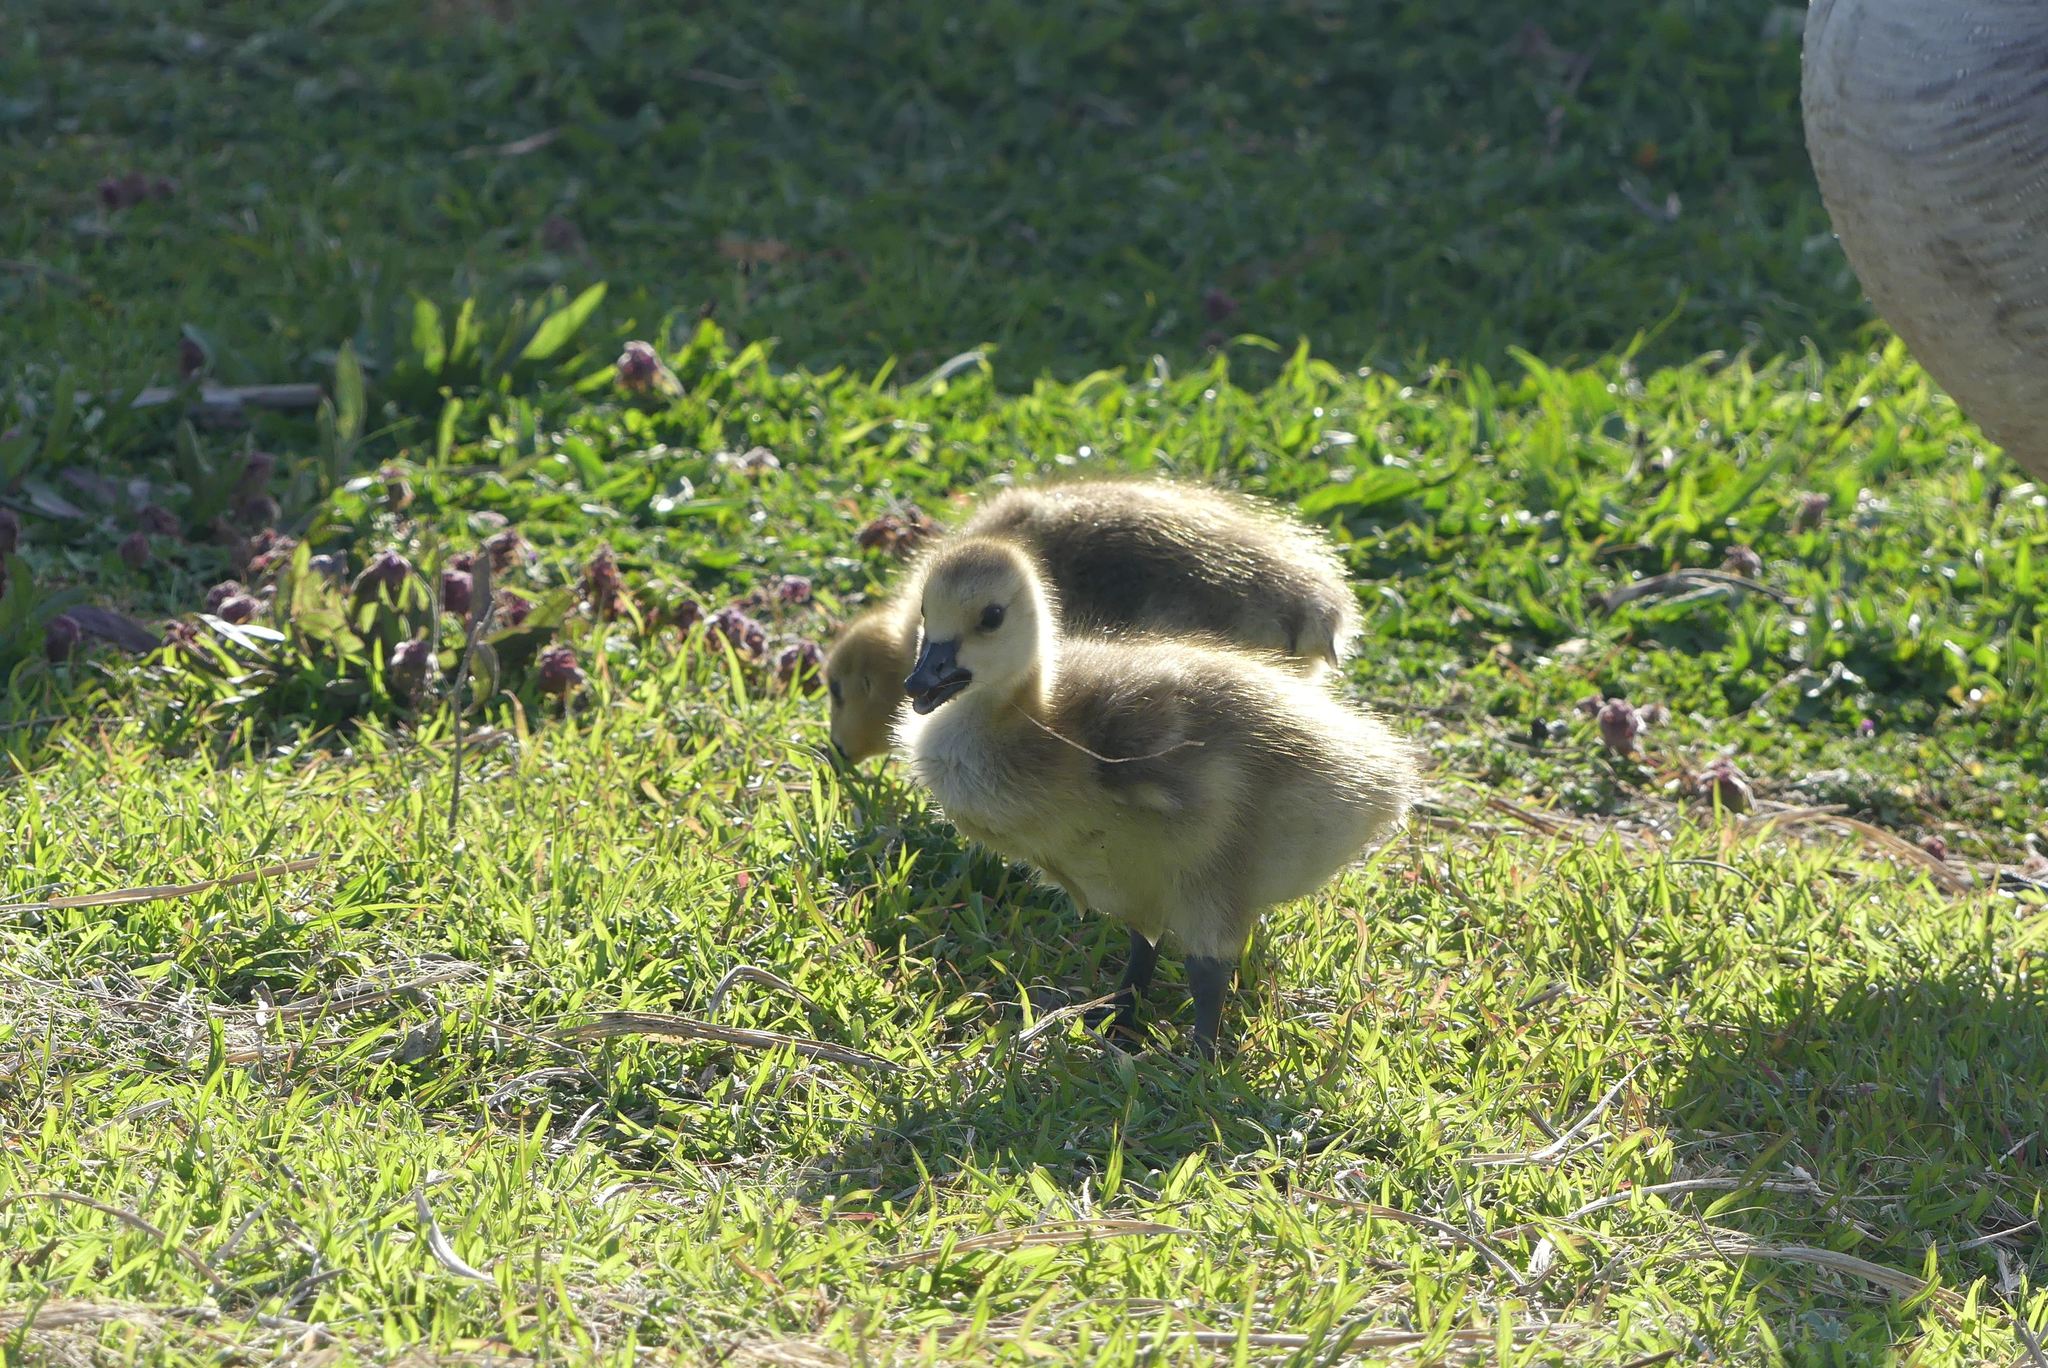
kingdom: Animalia
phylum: Chordata
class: Aves
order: Anseriformes
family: Anatidae
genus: Branta
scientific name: Branta canadensis
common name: Canada goose
